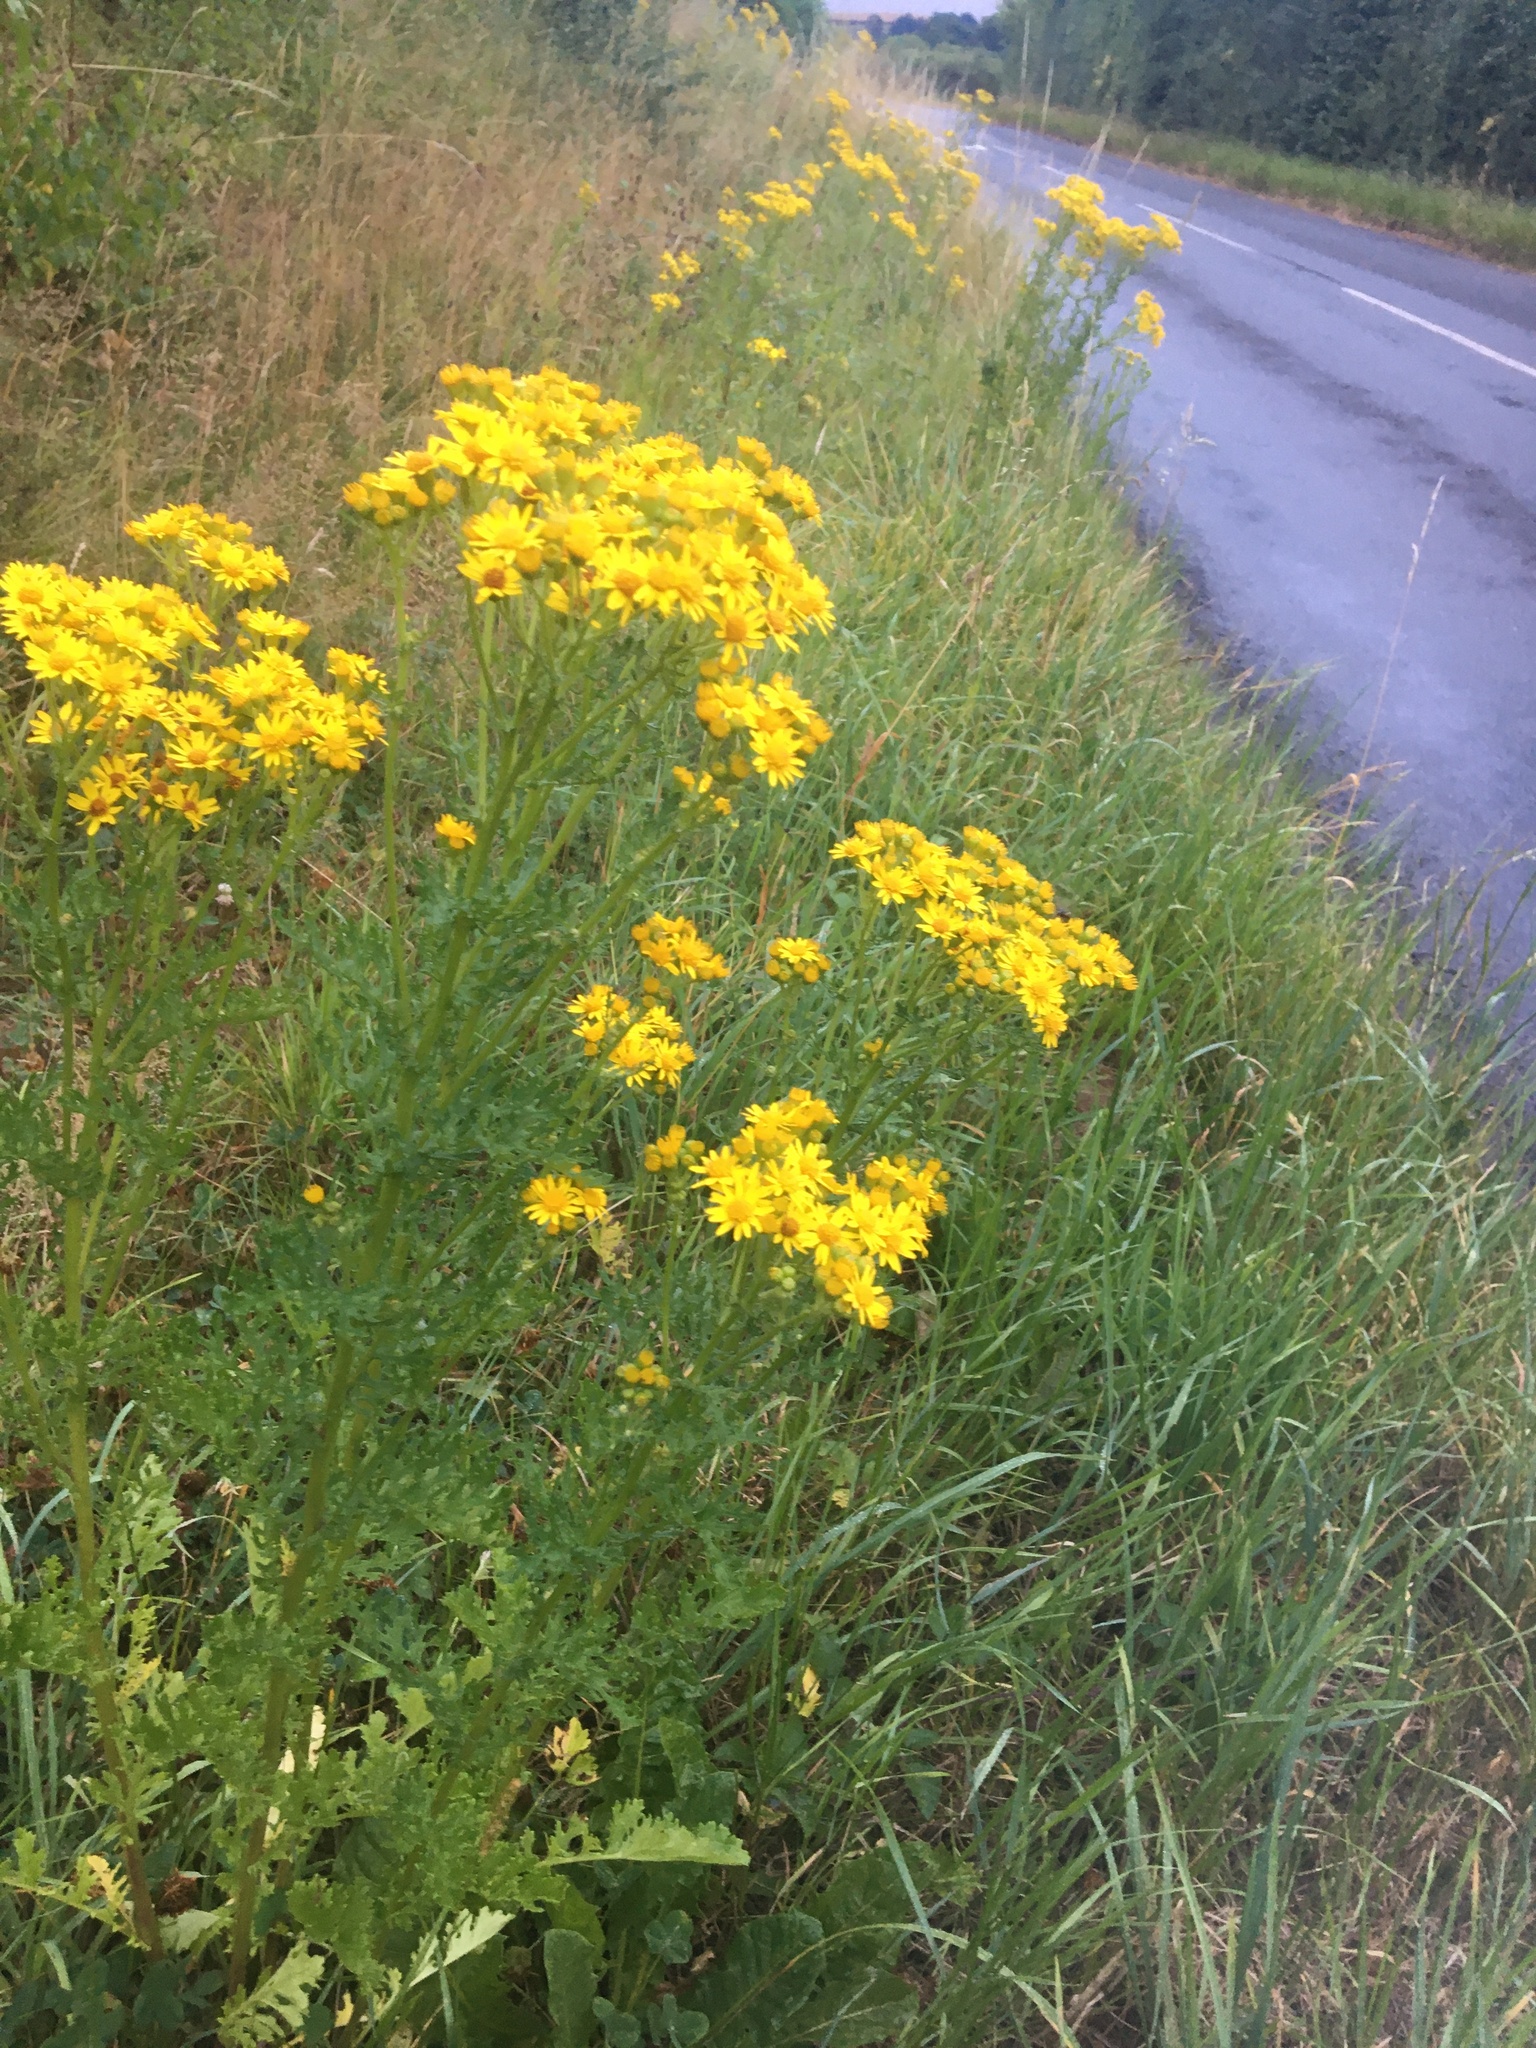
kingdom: Plantae
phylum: Tracheophyta
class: Magnoliopsida
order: Asterales
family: Asteraceae
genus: Jacobaea
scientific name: Jacobaea vulgaris
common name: Stinking willie
